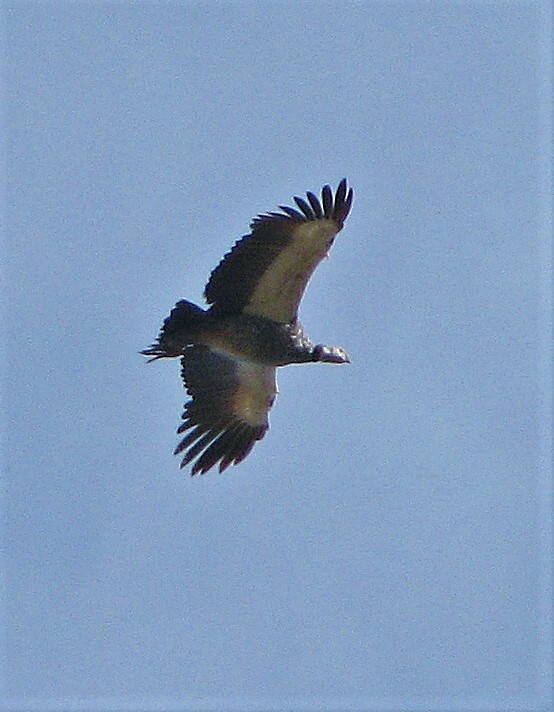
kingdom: Animalia
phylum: Chordata
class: Aves
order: Anseriformes
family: Anhimidae
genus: Chauna
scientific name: Chauna torquata
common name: Southern screamer
